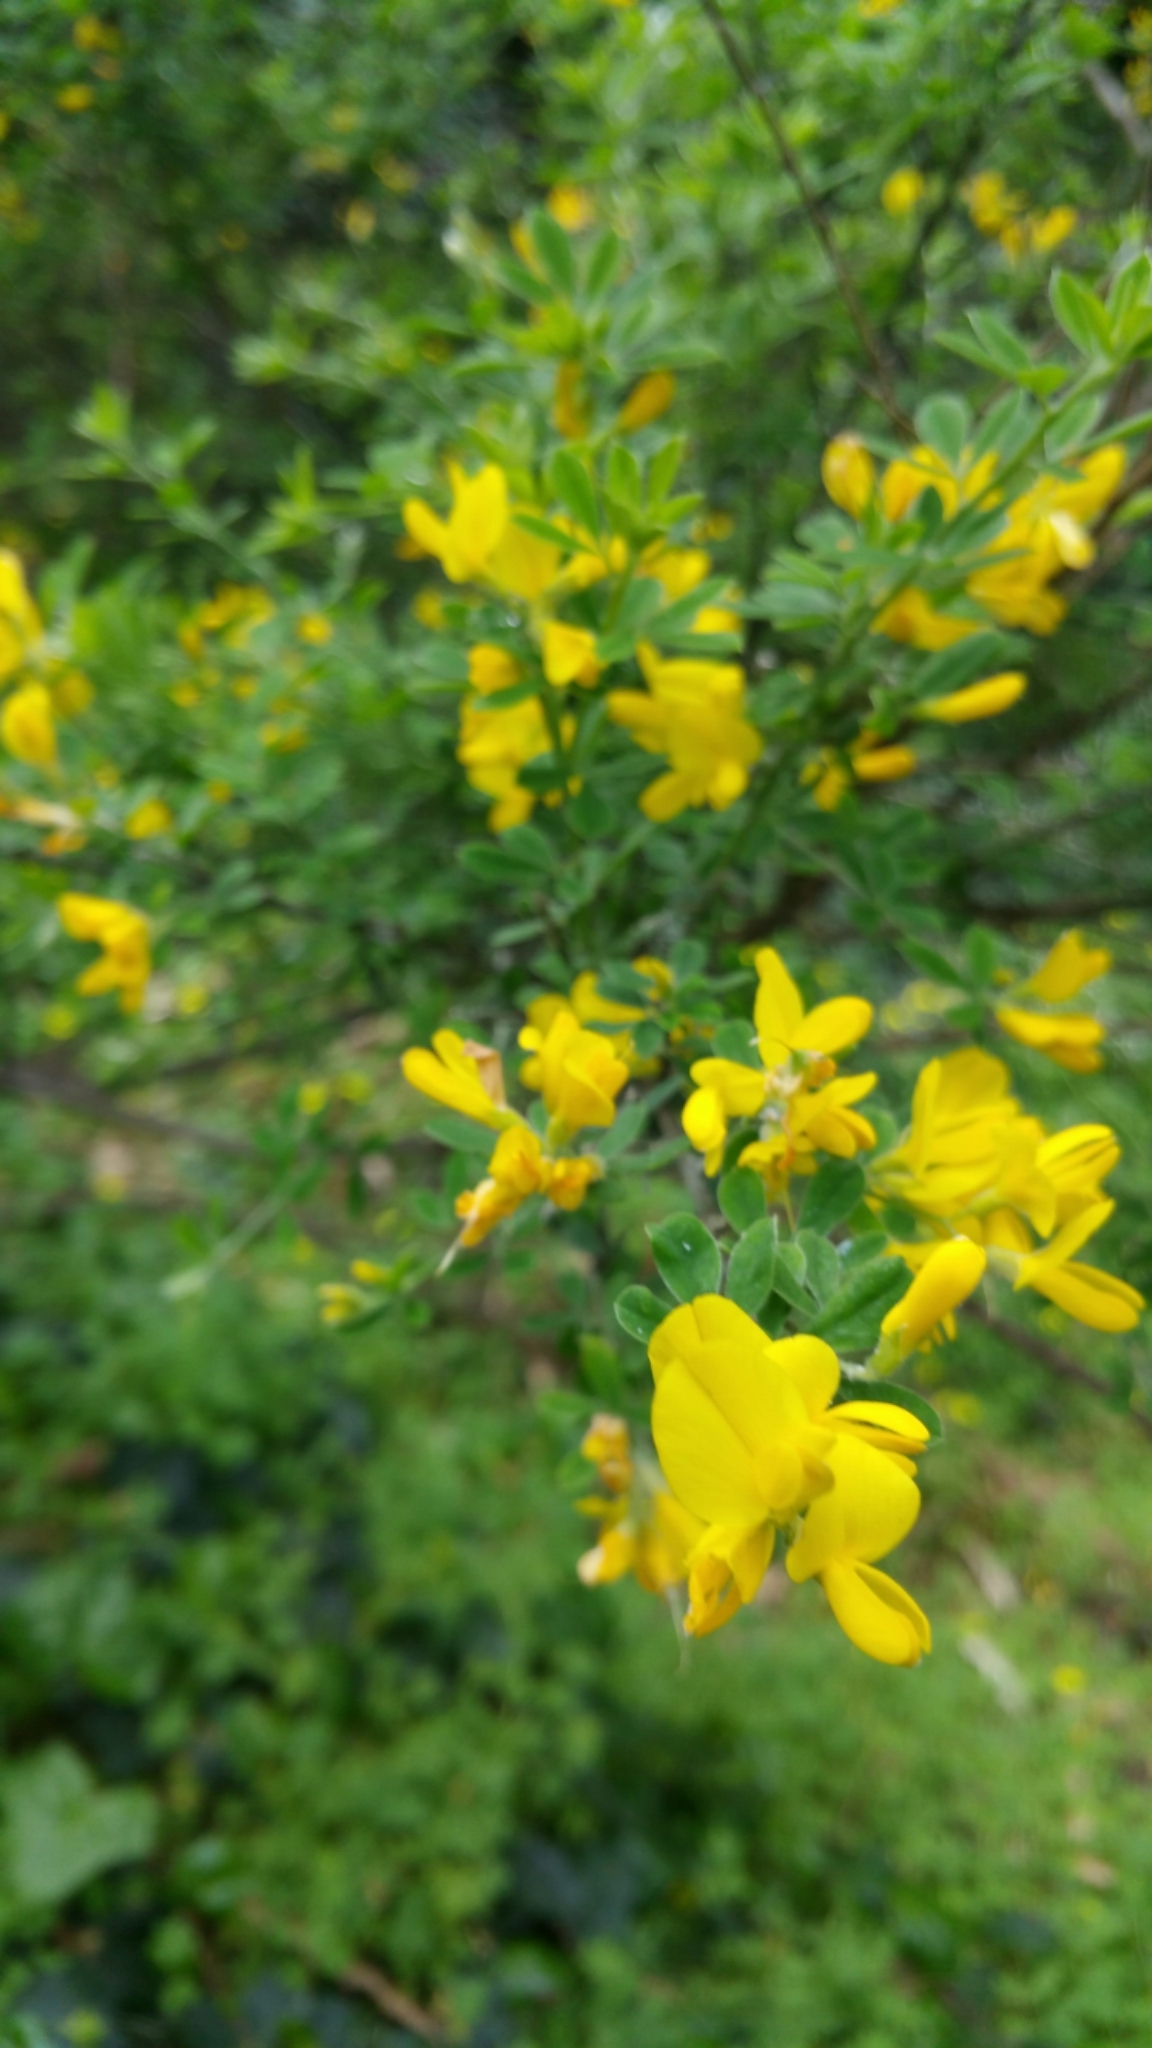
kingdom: Plantae
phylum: Tracheophyta
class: Magnoliopsida
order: Fabales
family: Fabaceae
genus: Genista
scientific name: Genista monspessulana
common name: Montpellier broom
